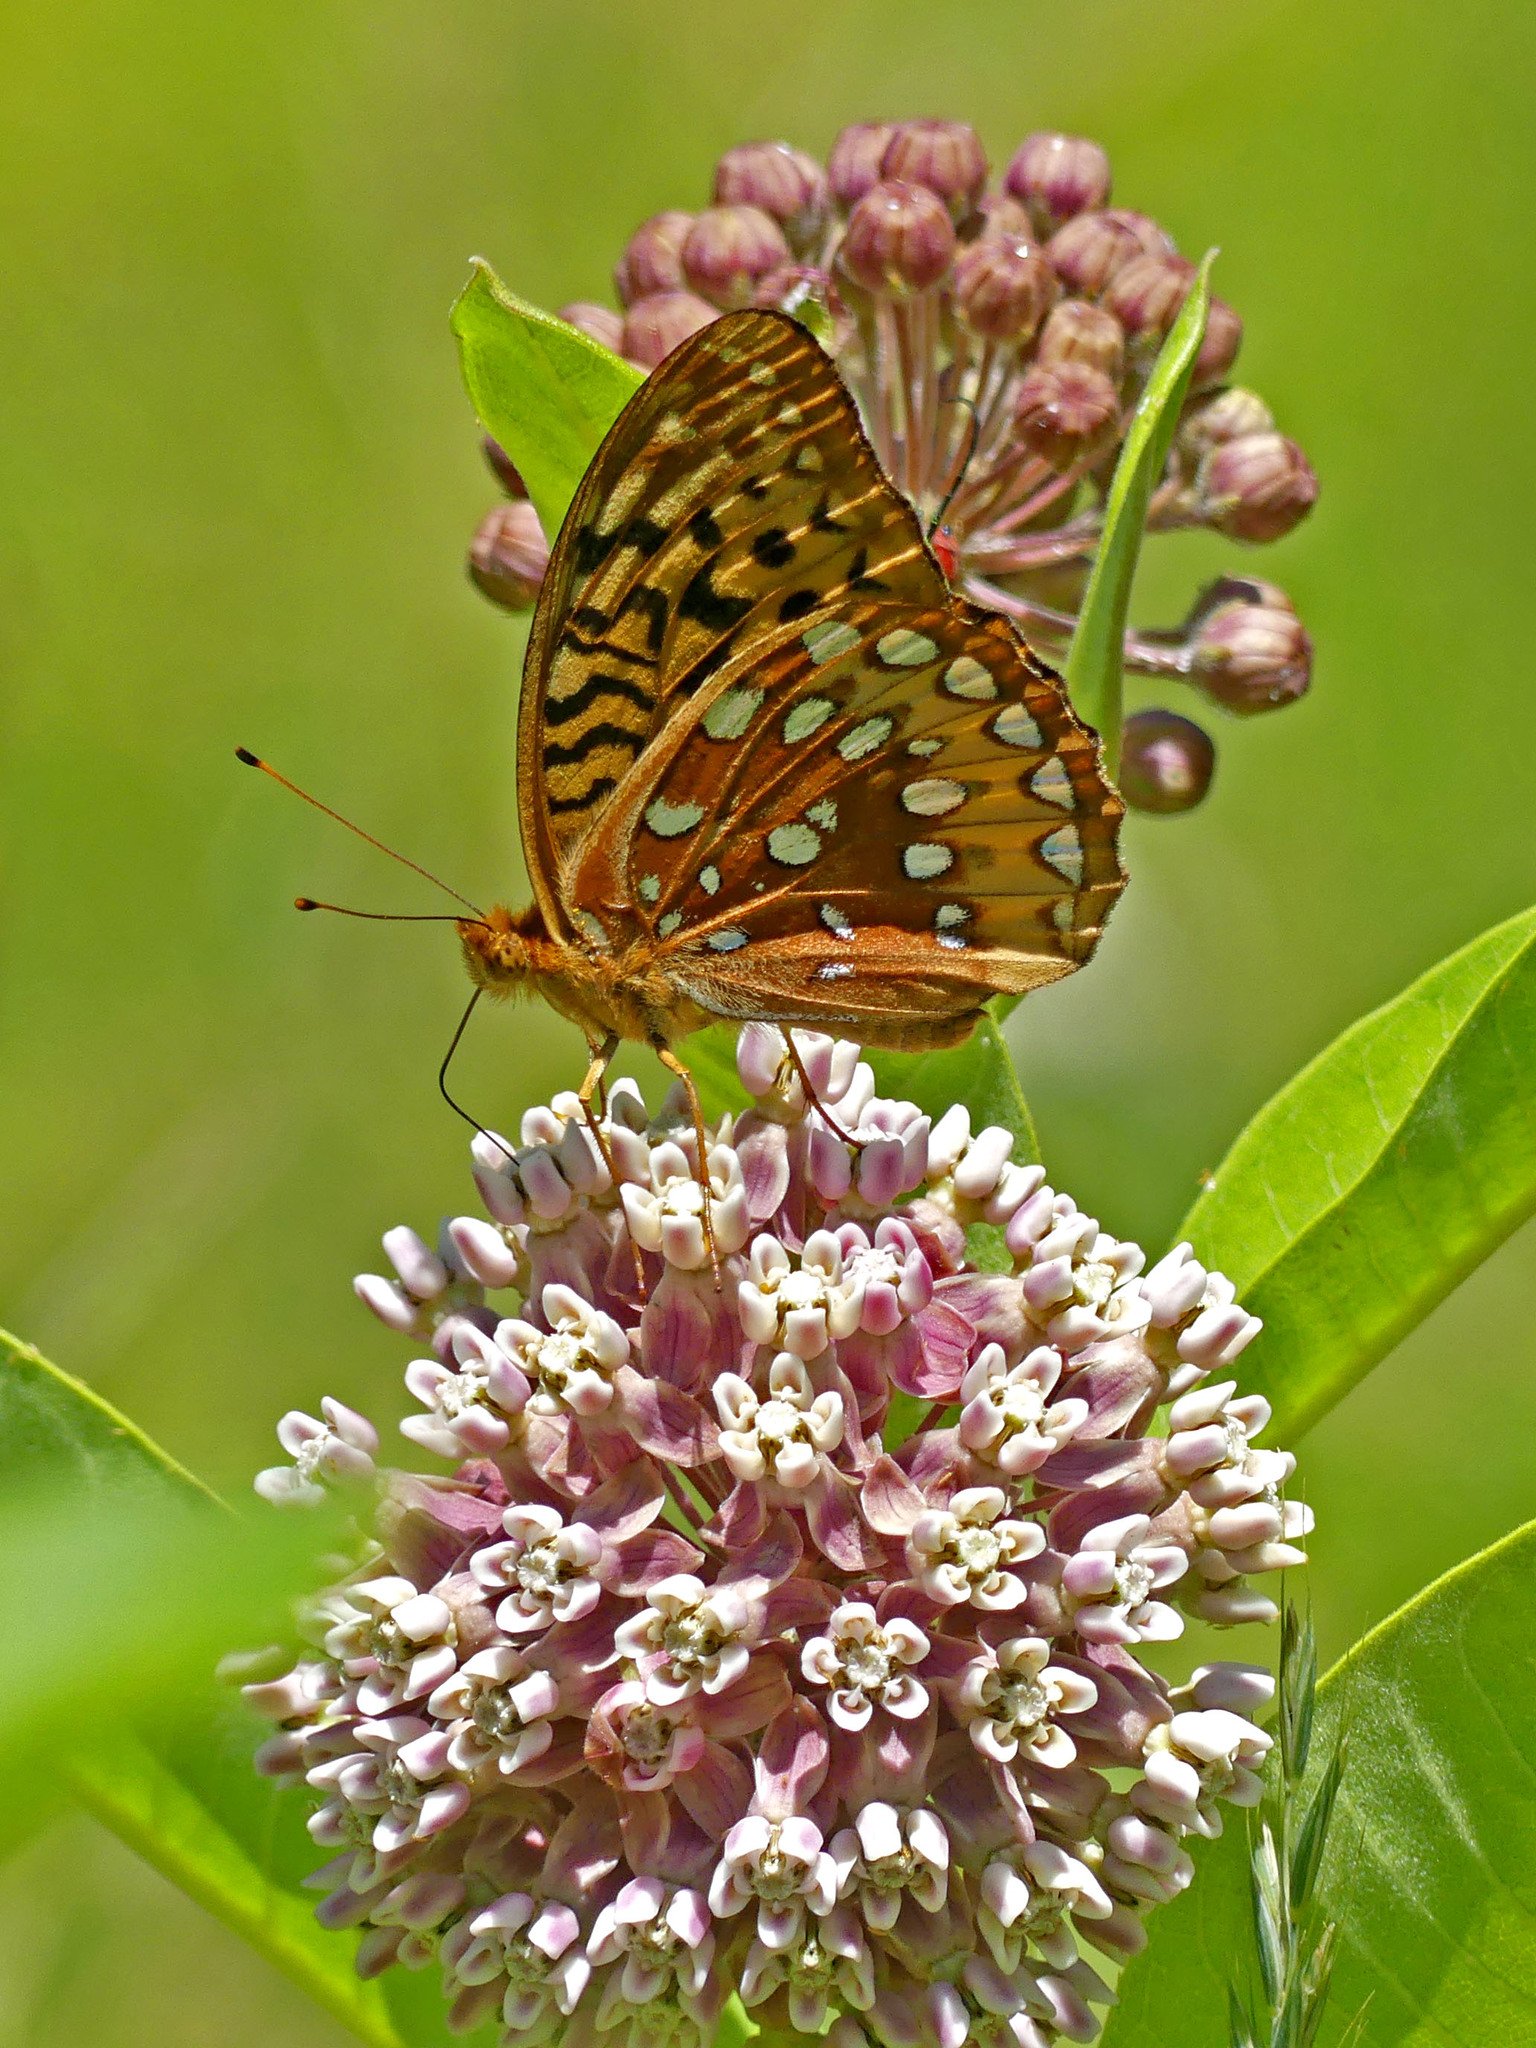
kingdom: Animalia
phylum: Arthropoda
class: Insecta
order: Lepidoptera
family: Nymphalidae
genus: Speyeria
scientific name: Speyeria cybele
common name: Great spangled fritillary
